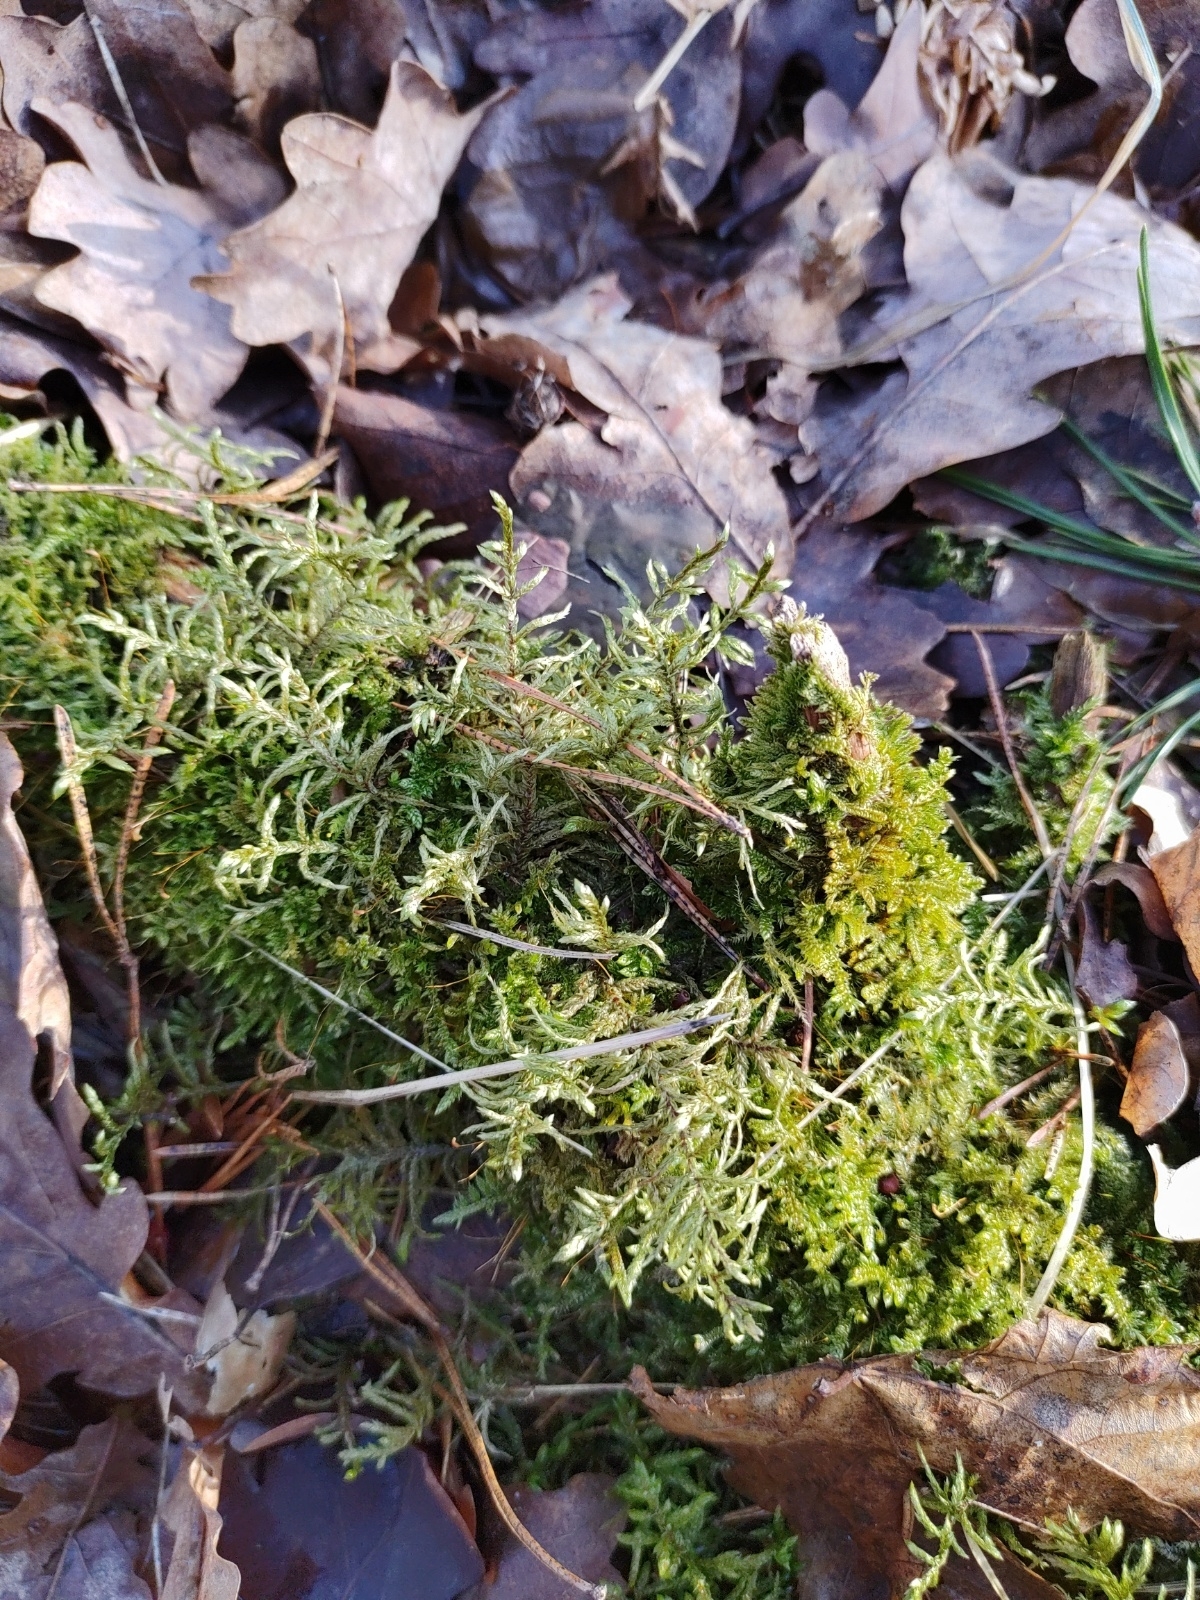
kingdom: Plantae
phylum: Bryophyta
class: Bryopsida
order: Hypnales
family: Hylocomiaceae
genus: Pleurozium
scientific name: Pleurozium schreberi
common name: Red-stemmed feather moss
